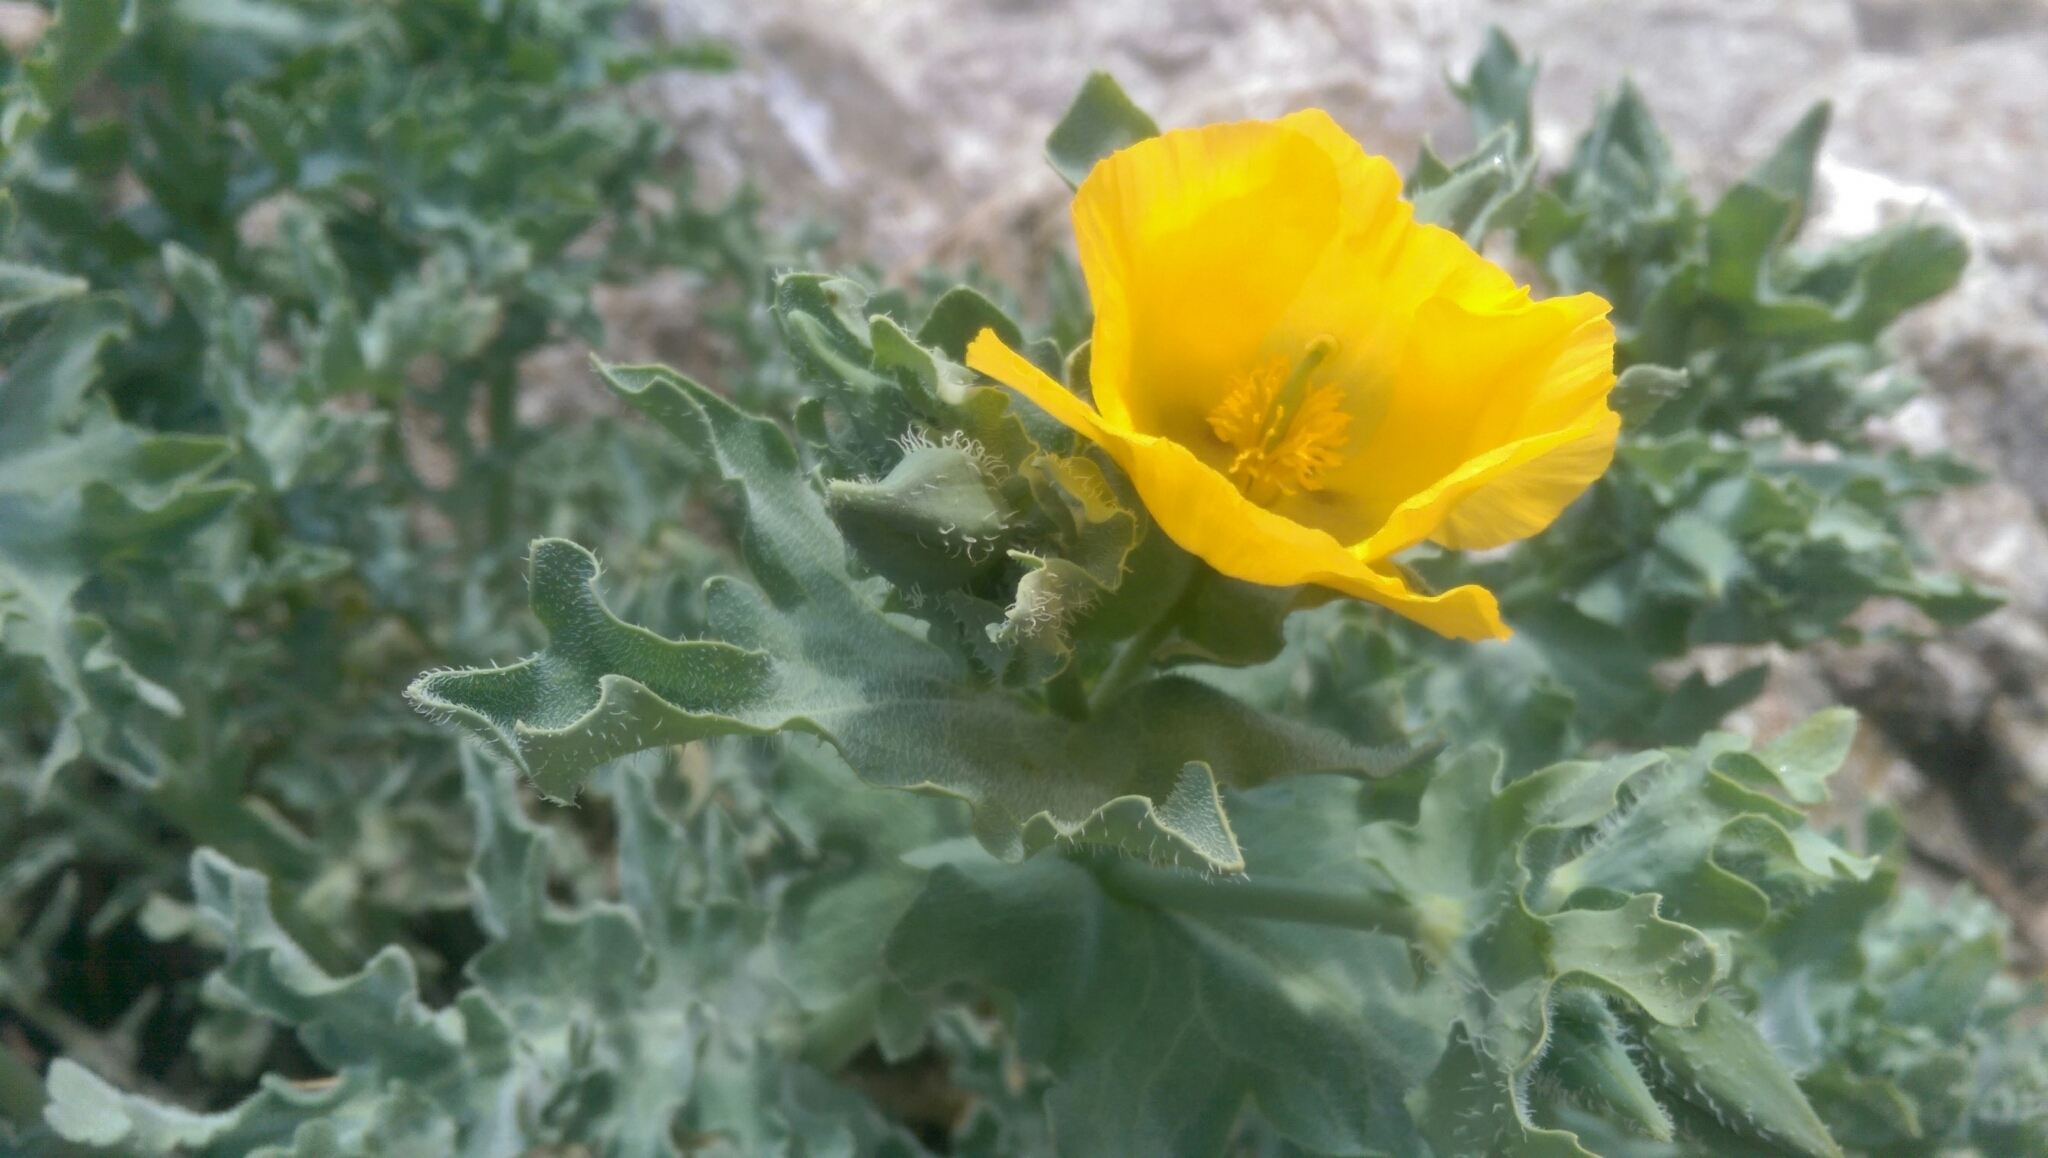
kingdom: Plantae
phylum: Tracheophyta
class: Magnoliopsida
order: Ranunculales
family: Papaveraceae
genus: Glaucium
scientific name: Glaucium flavum
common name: Yellow horned-poppy
